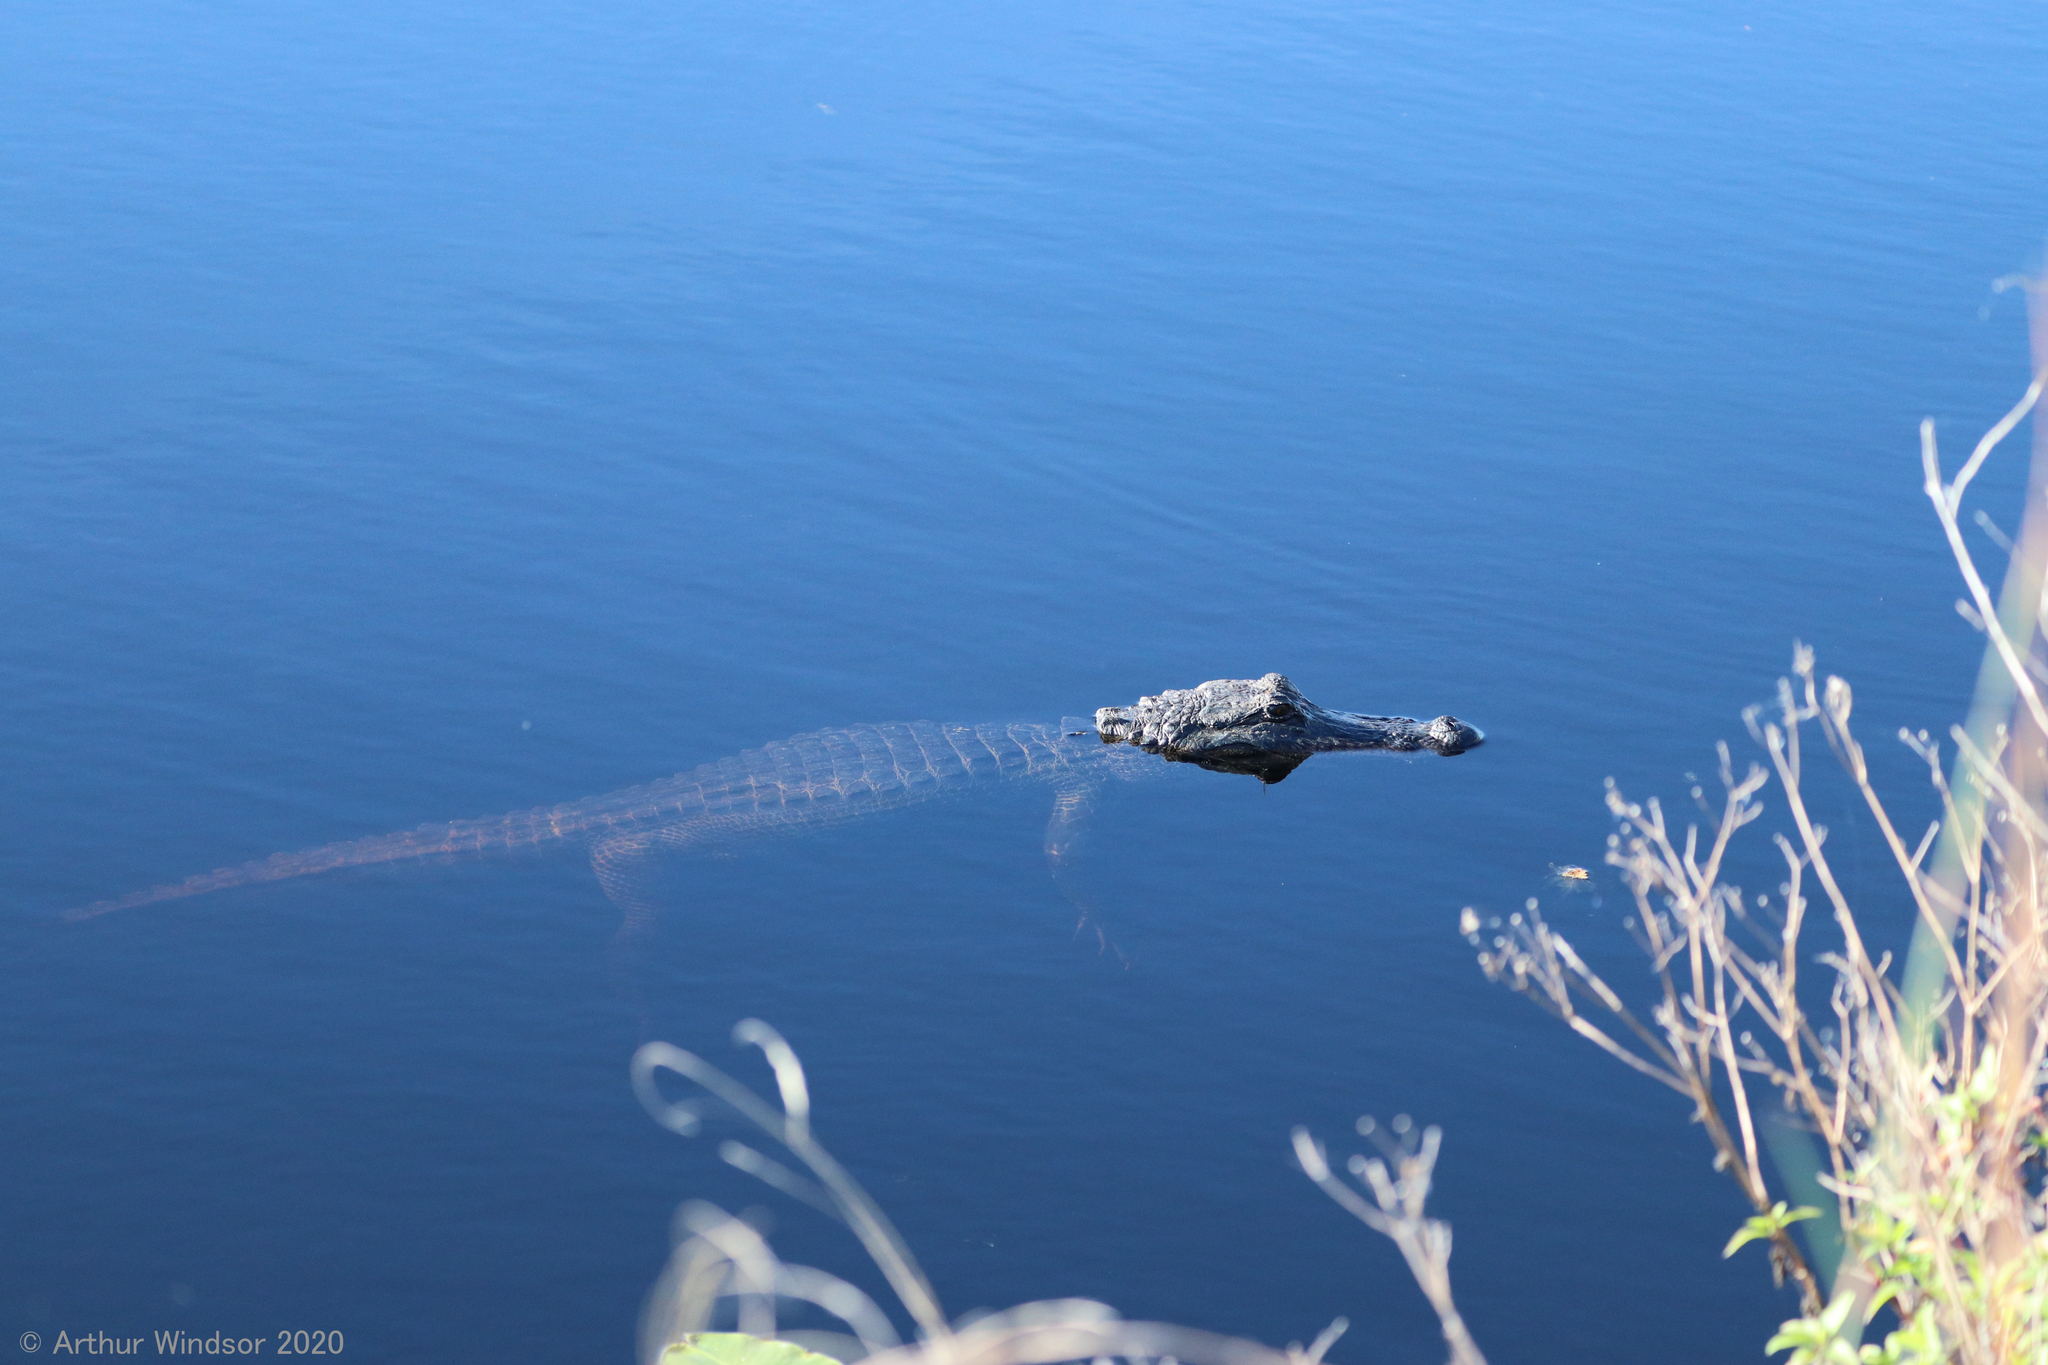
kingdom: Animalia
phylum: Chordata
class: Crocodylia
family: Alligatoridae
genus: Alligator
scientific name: Alligator mississippiensis
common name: American alligator
